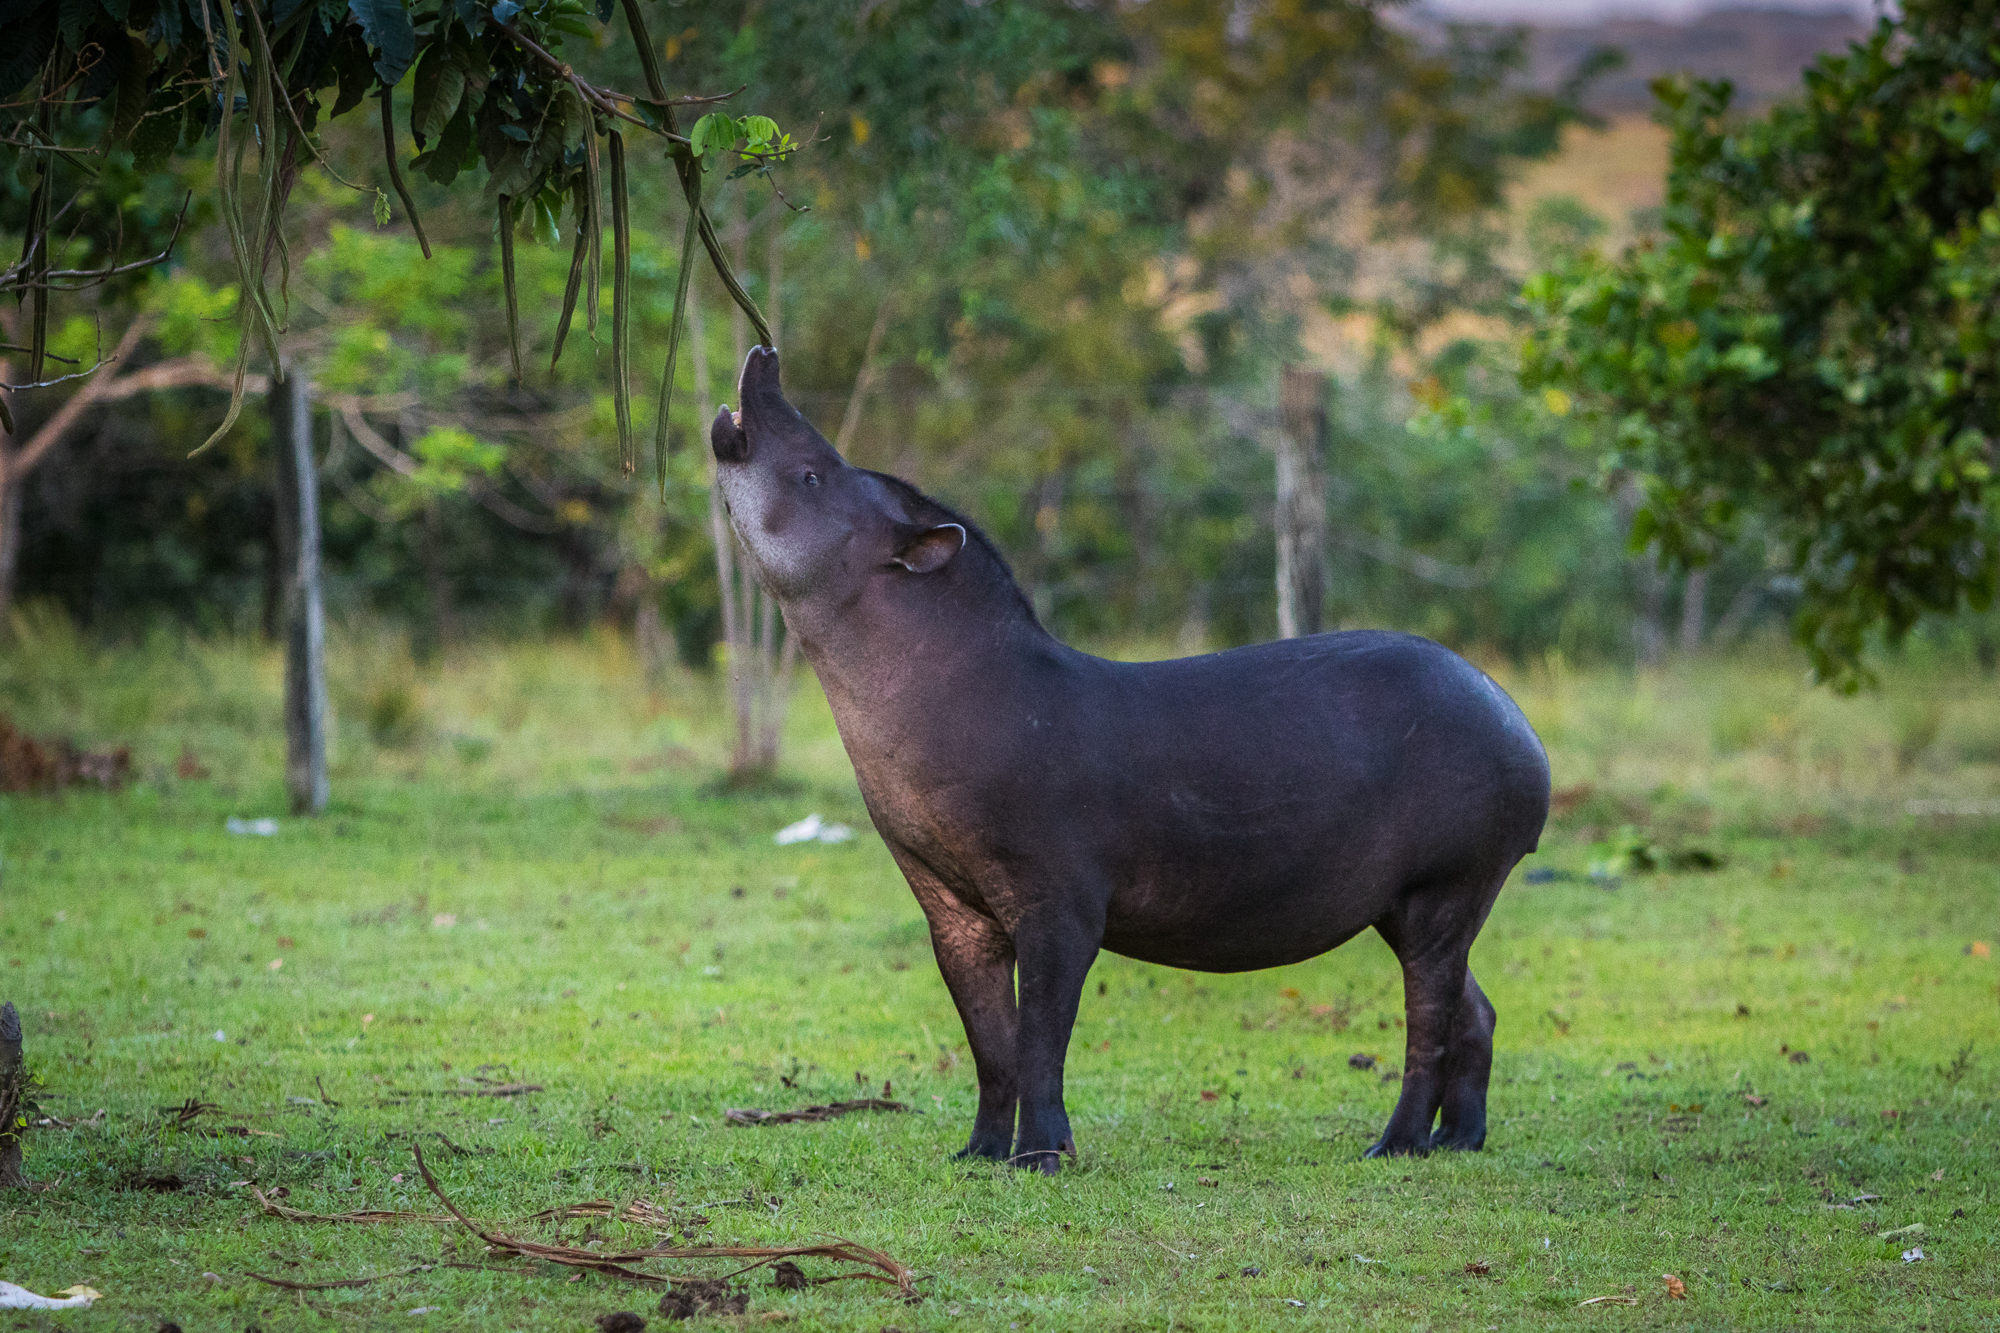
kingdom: Animalia
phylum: Chordata
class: Mammalia
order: Perissodactyla
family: Tapiridae
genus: Tapirus
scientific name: Tapirus terrestris
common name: Brazilian tapir
